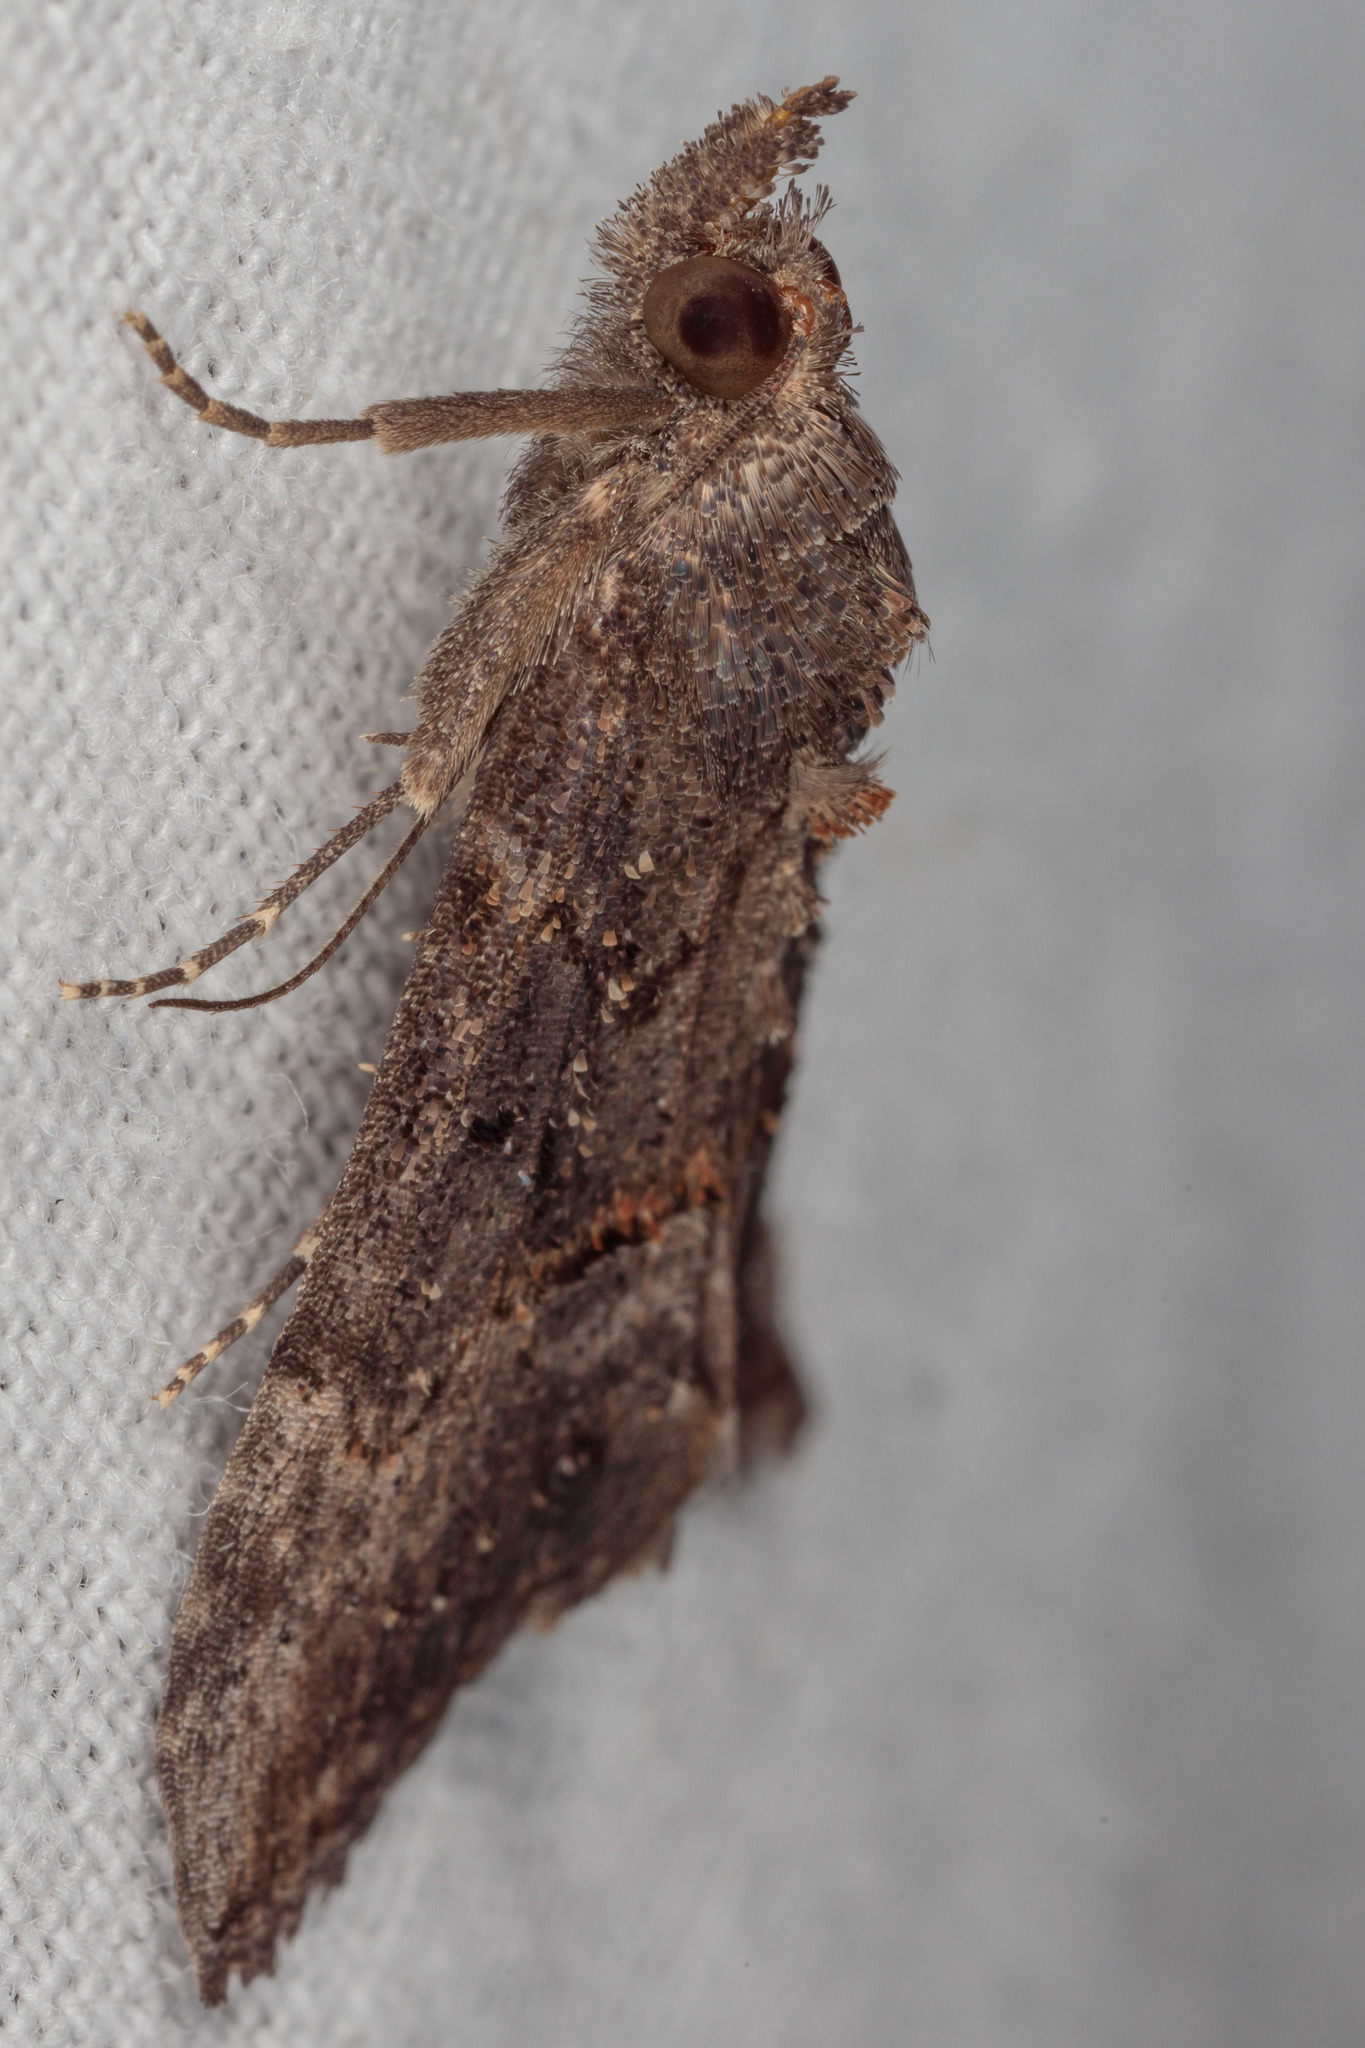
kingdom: Animalia
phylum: Arthropoda
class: Insecta
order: Lepidoptera
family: Erebidae
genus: Hypena
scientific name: Hypena scabra
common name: Green cloverworm
